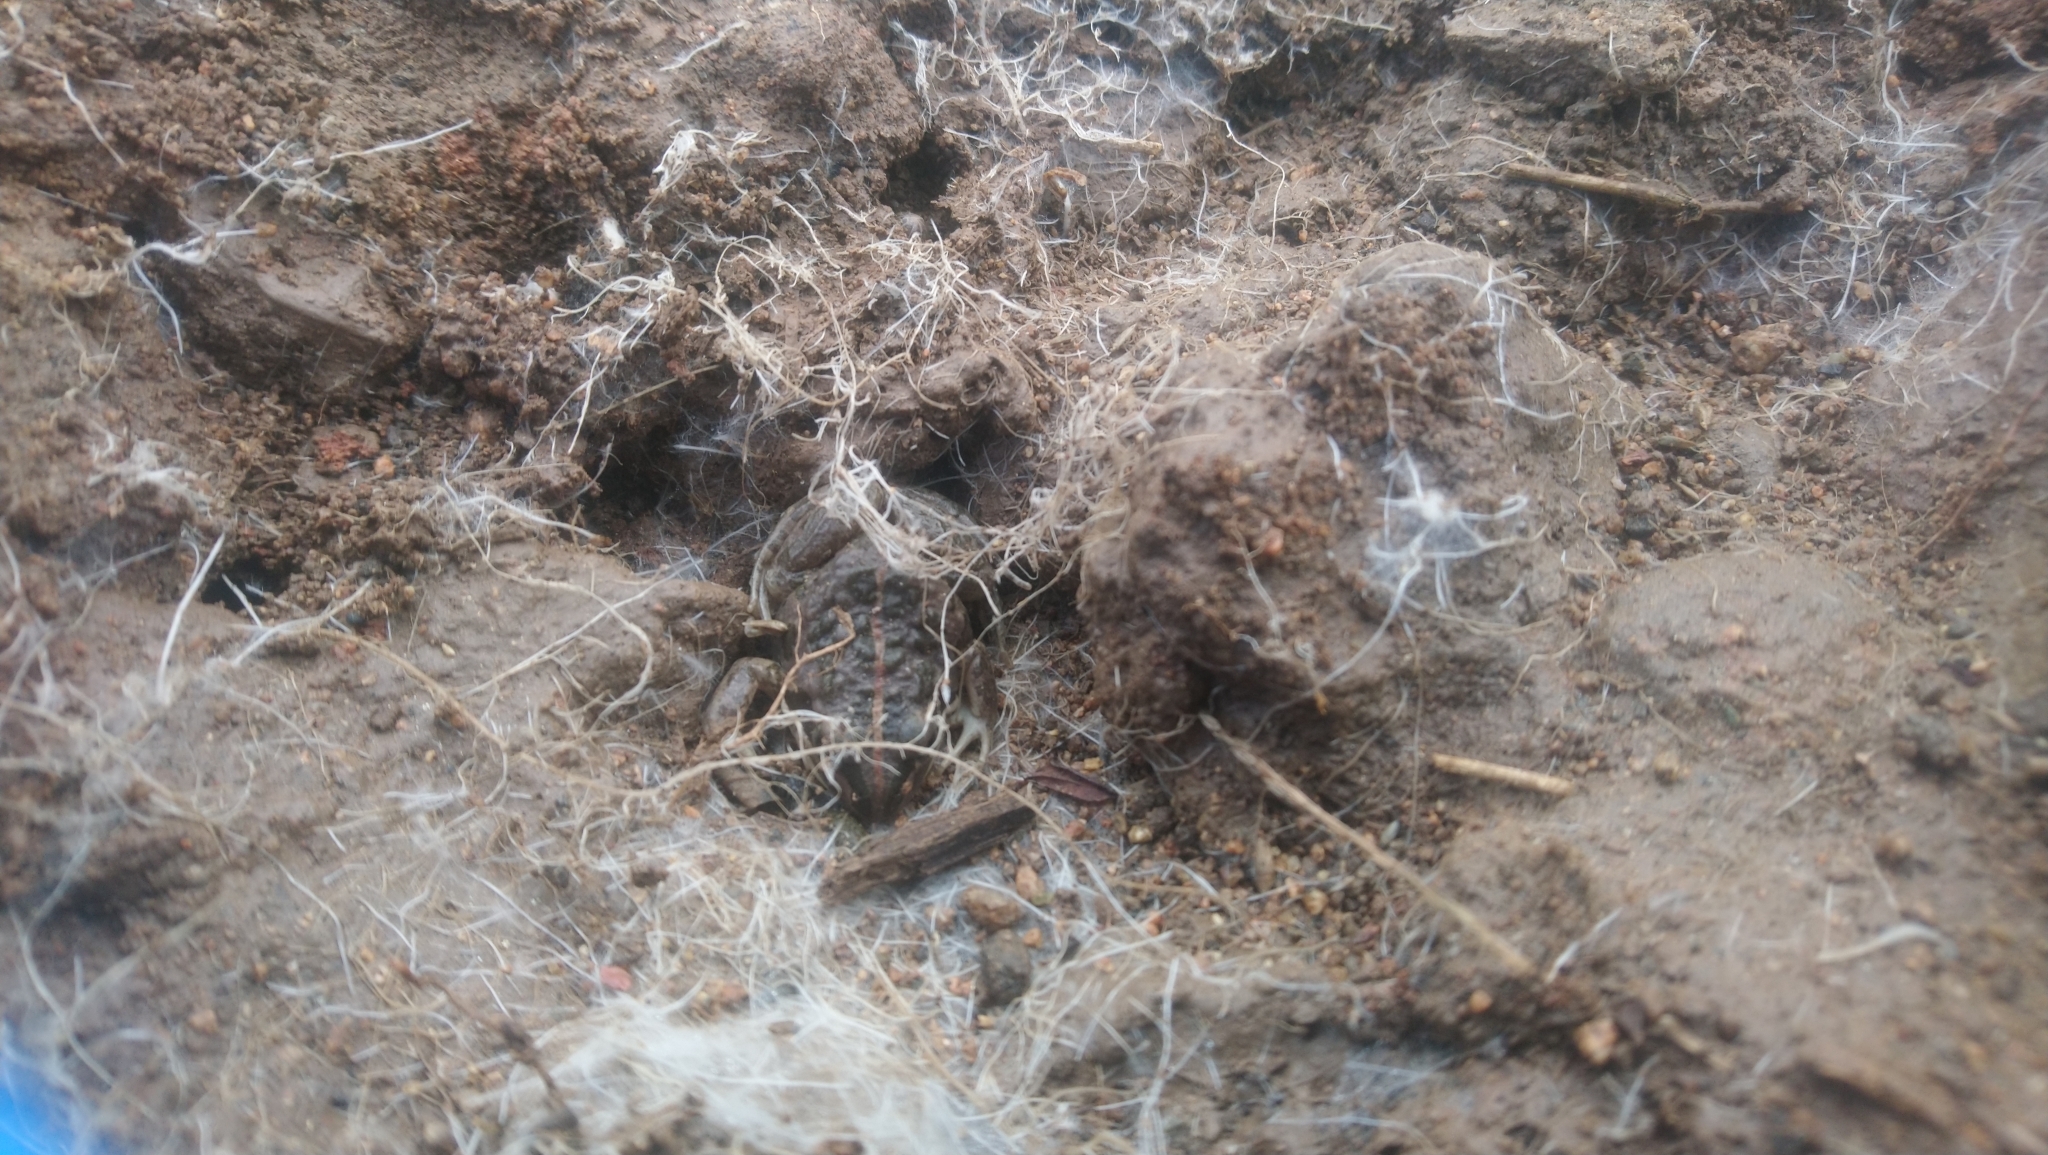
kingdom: Animalia
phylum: Chordata
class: Amphibia
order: Anura
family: Limnodynastidae
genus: Limnodynastes
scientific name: Limnodynastes tasmaniensis
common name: Spotted marsh frog
